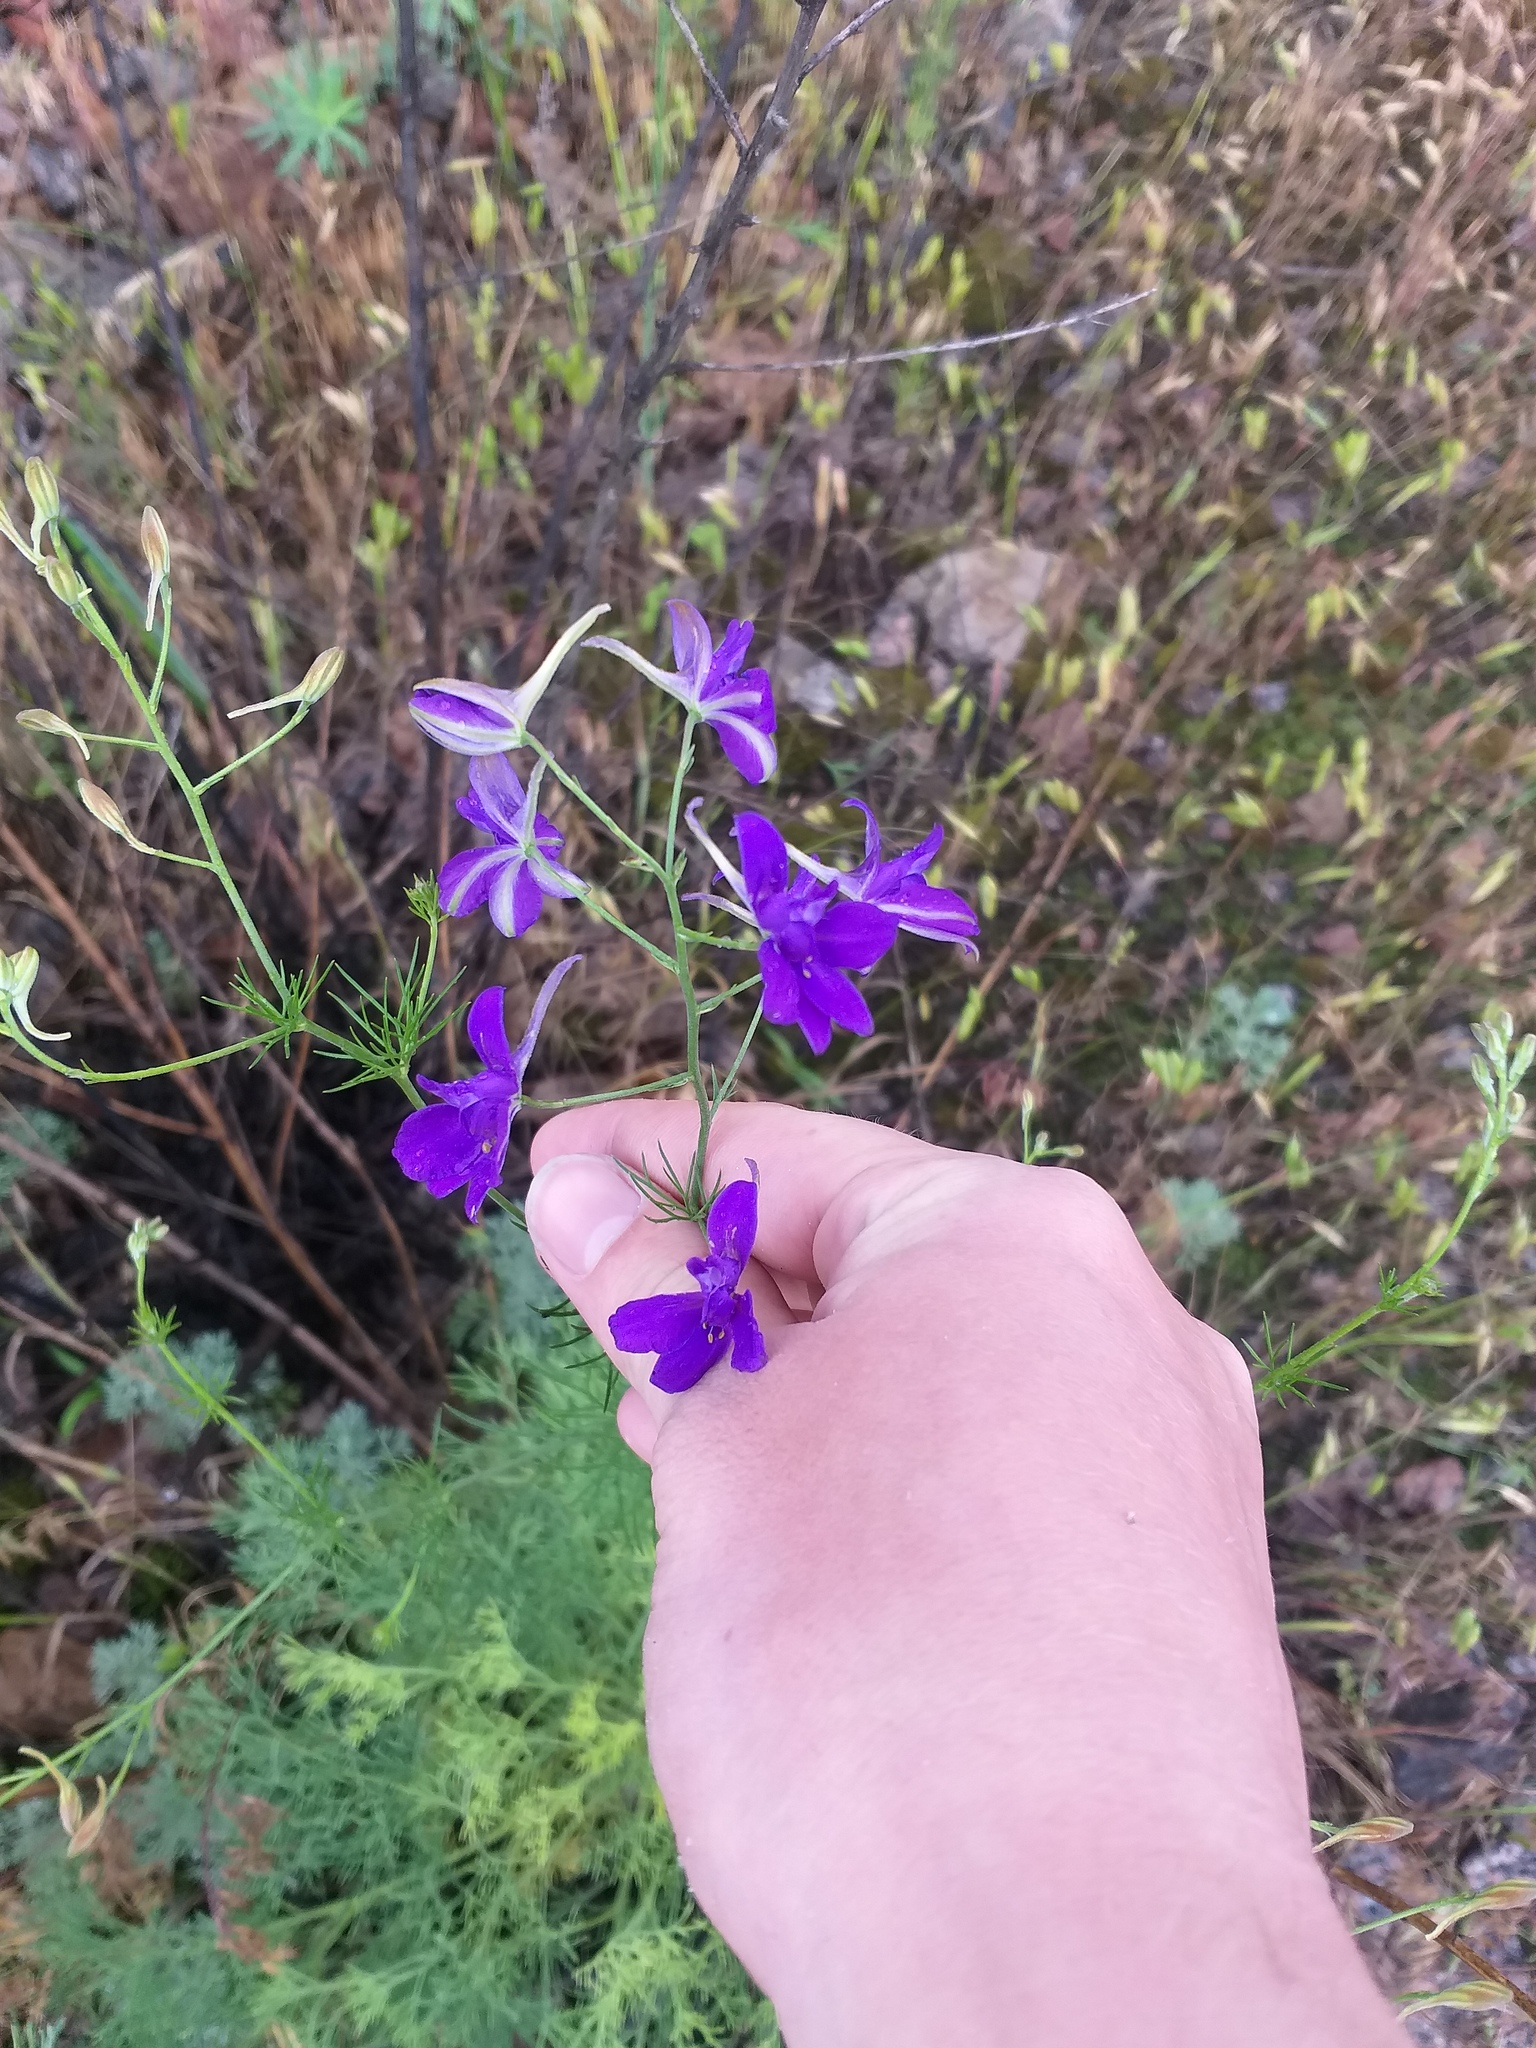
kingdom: Plantae
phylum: Tracheophyta
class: Magnoliopsida
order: Ranunculales
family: Ranunculaceae
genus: Delphinium
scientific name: Delphinium consolida
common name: Branching larkspur
